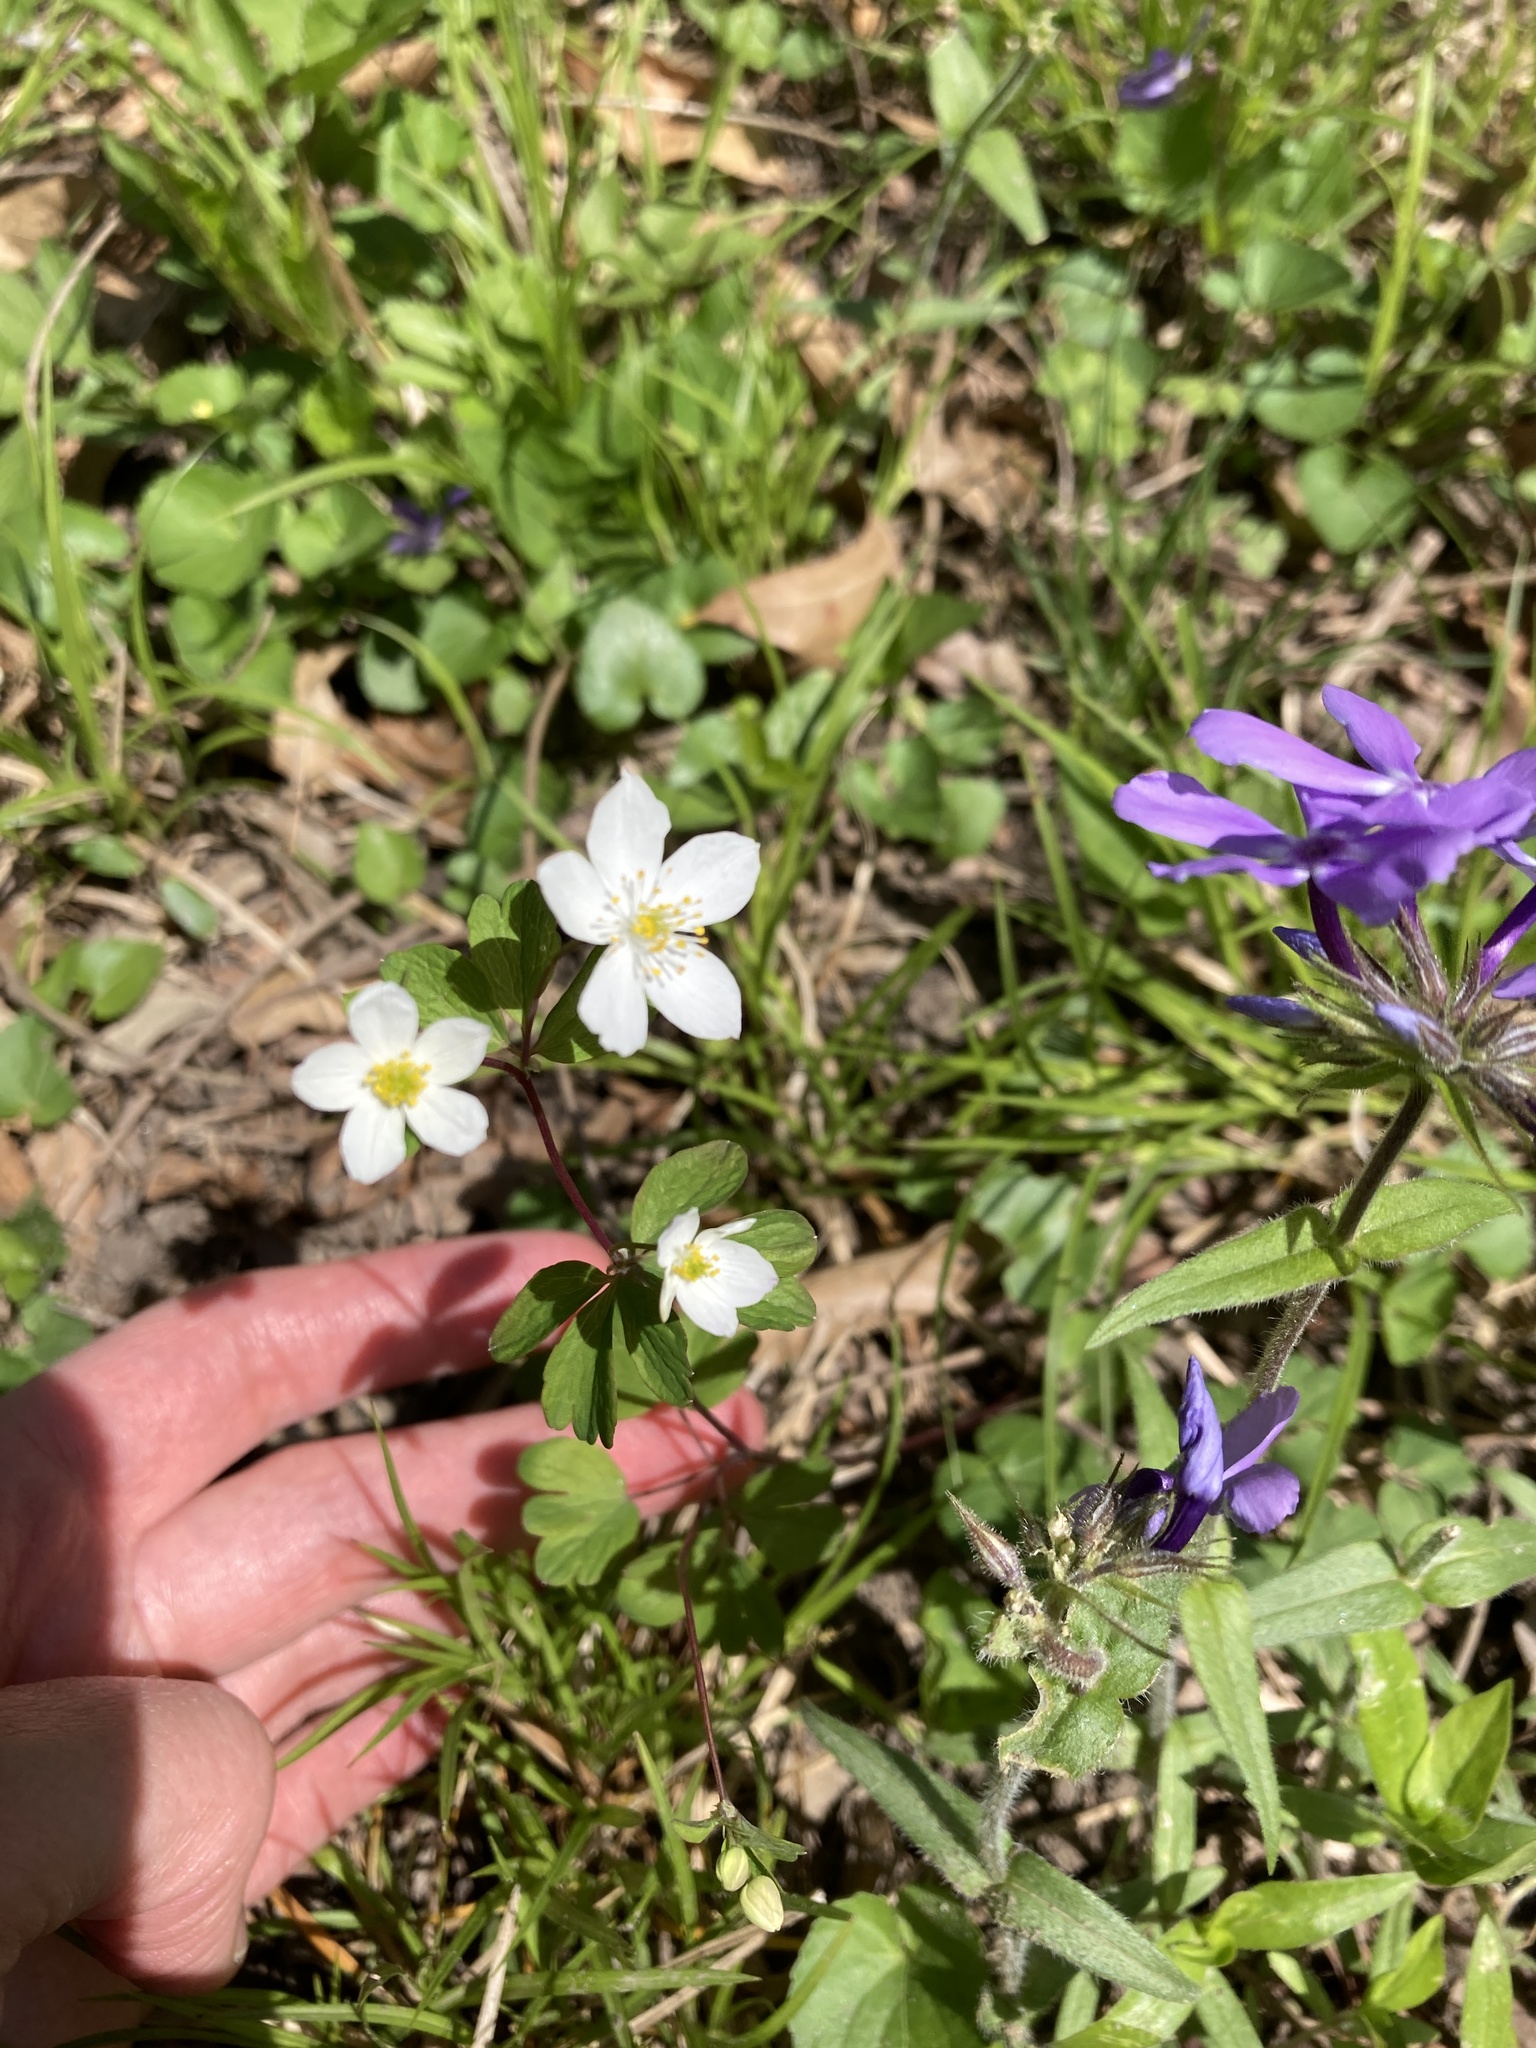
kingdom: Plantae
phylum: Tracheophyta
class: Magnoliopsida
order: Ranunculales
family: Ranunculaceae
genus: Enemion
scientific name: Enemion biternatum
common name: Eastern false rue-anemone
